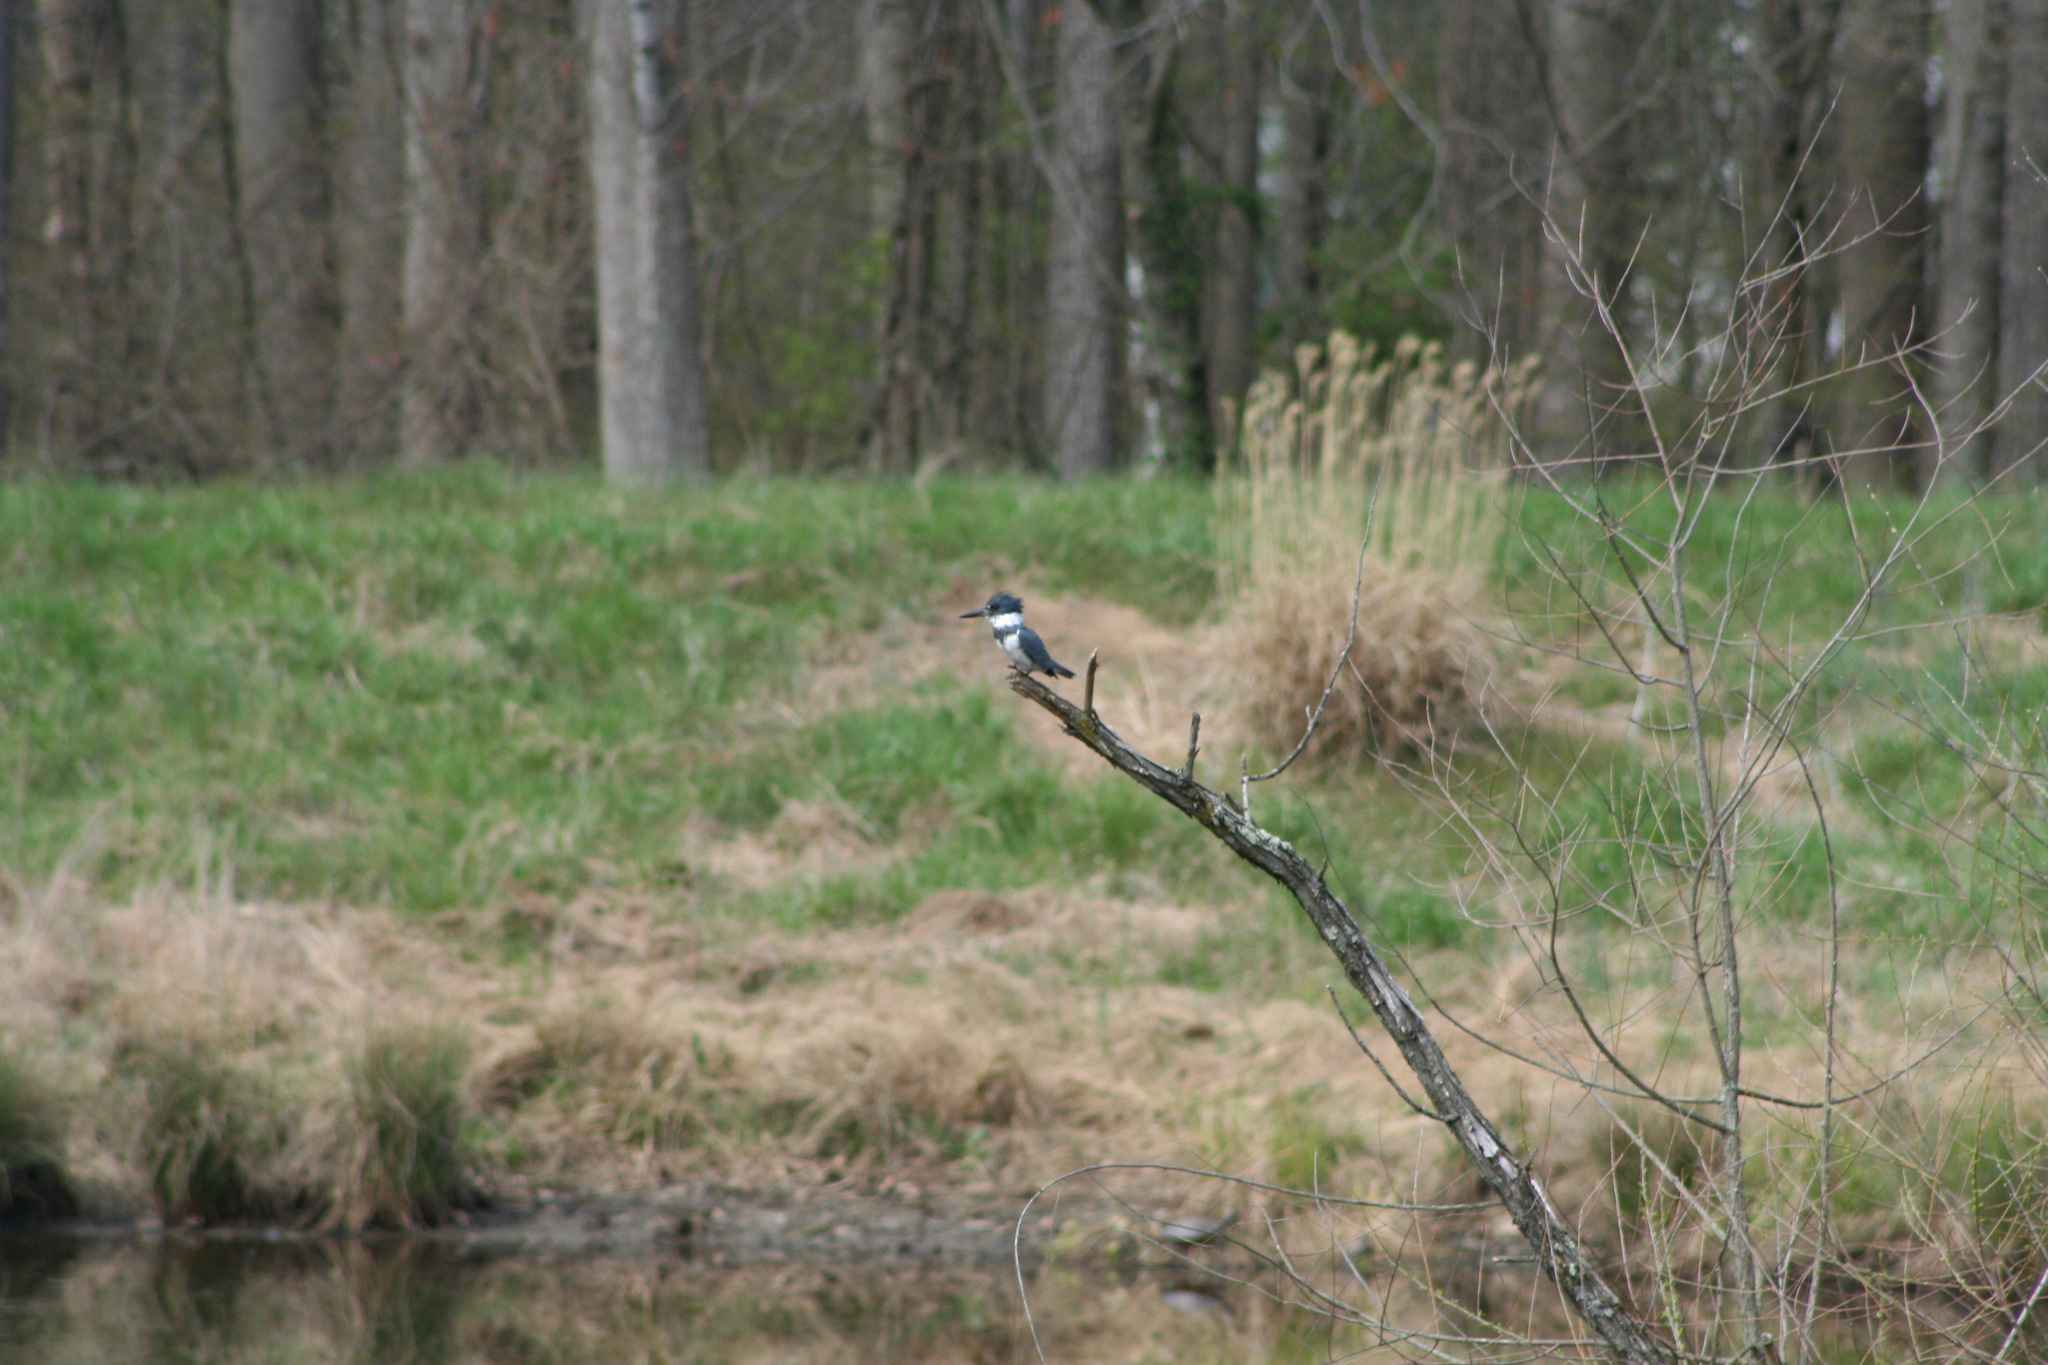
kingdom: Animalia
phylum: Chordata
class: Aves
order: Coraciiformes
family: Alcedinidae
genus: Megaceryle
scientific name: Megaceryle alcyon
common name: Belted kingfisher
